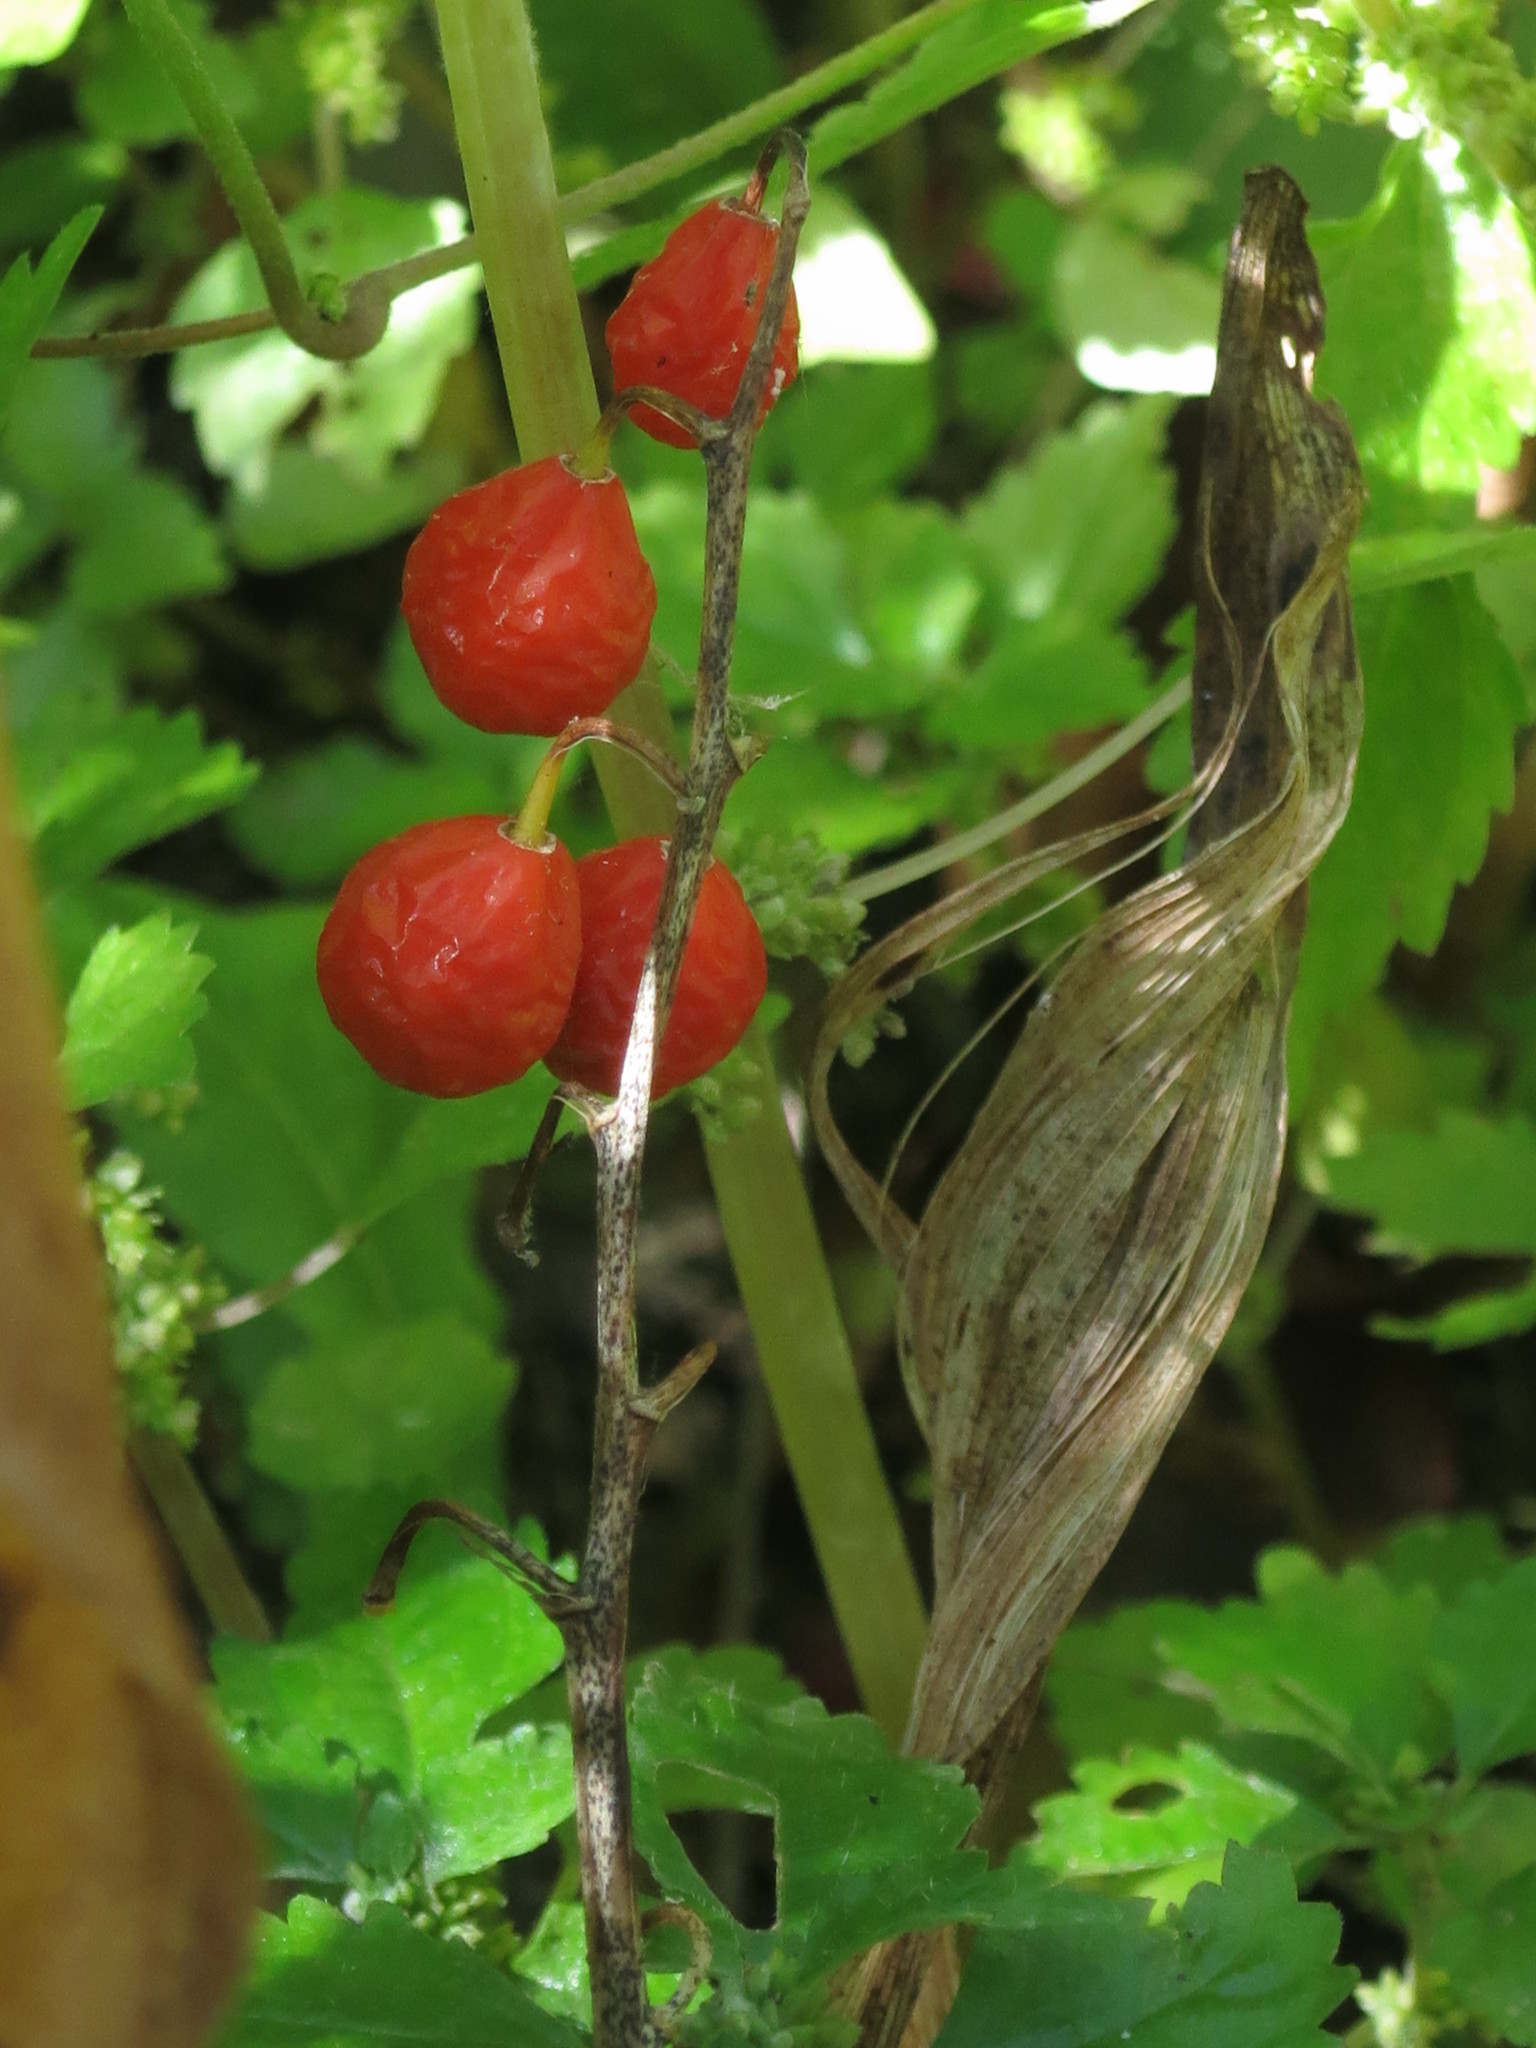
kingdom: Plantae
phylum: Tracheophyta
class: Liliopsida
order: Asparagales
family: Asparagaceae
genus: Convallaria
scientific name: Convallaria keiskei
